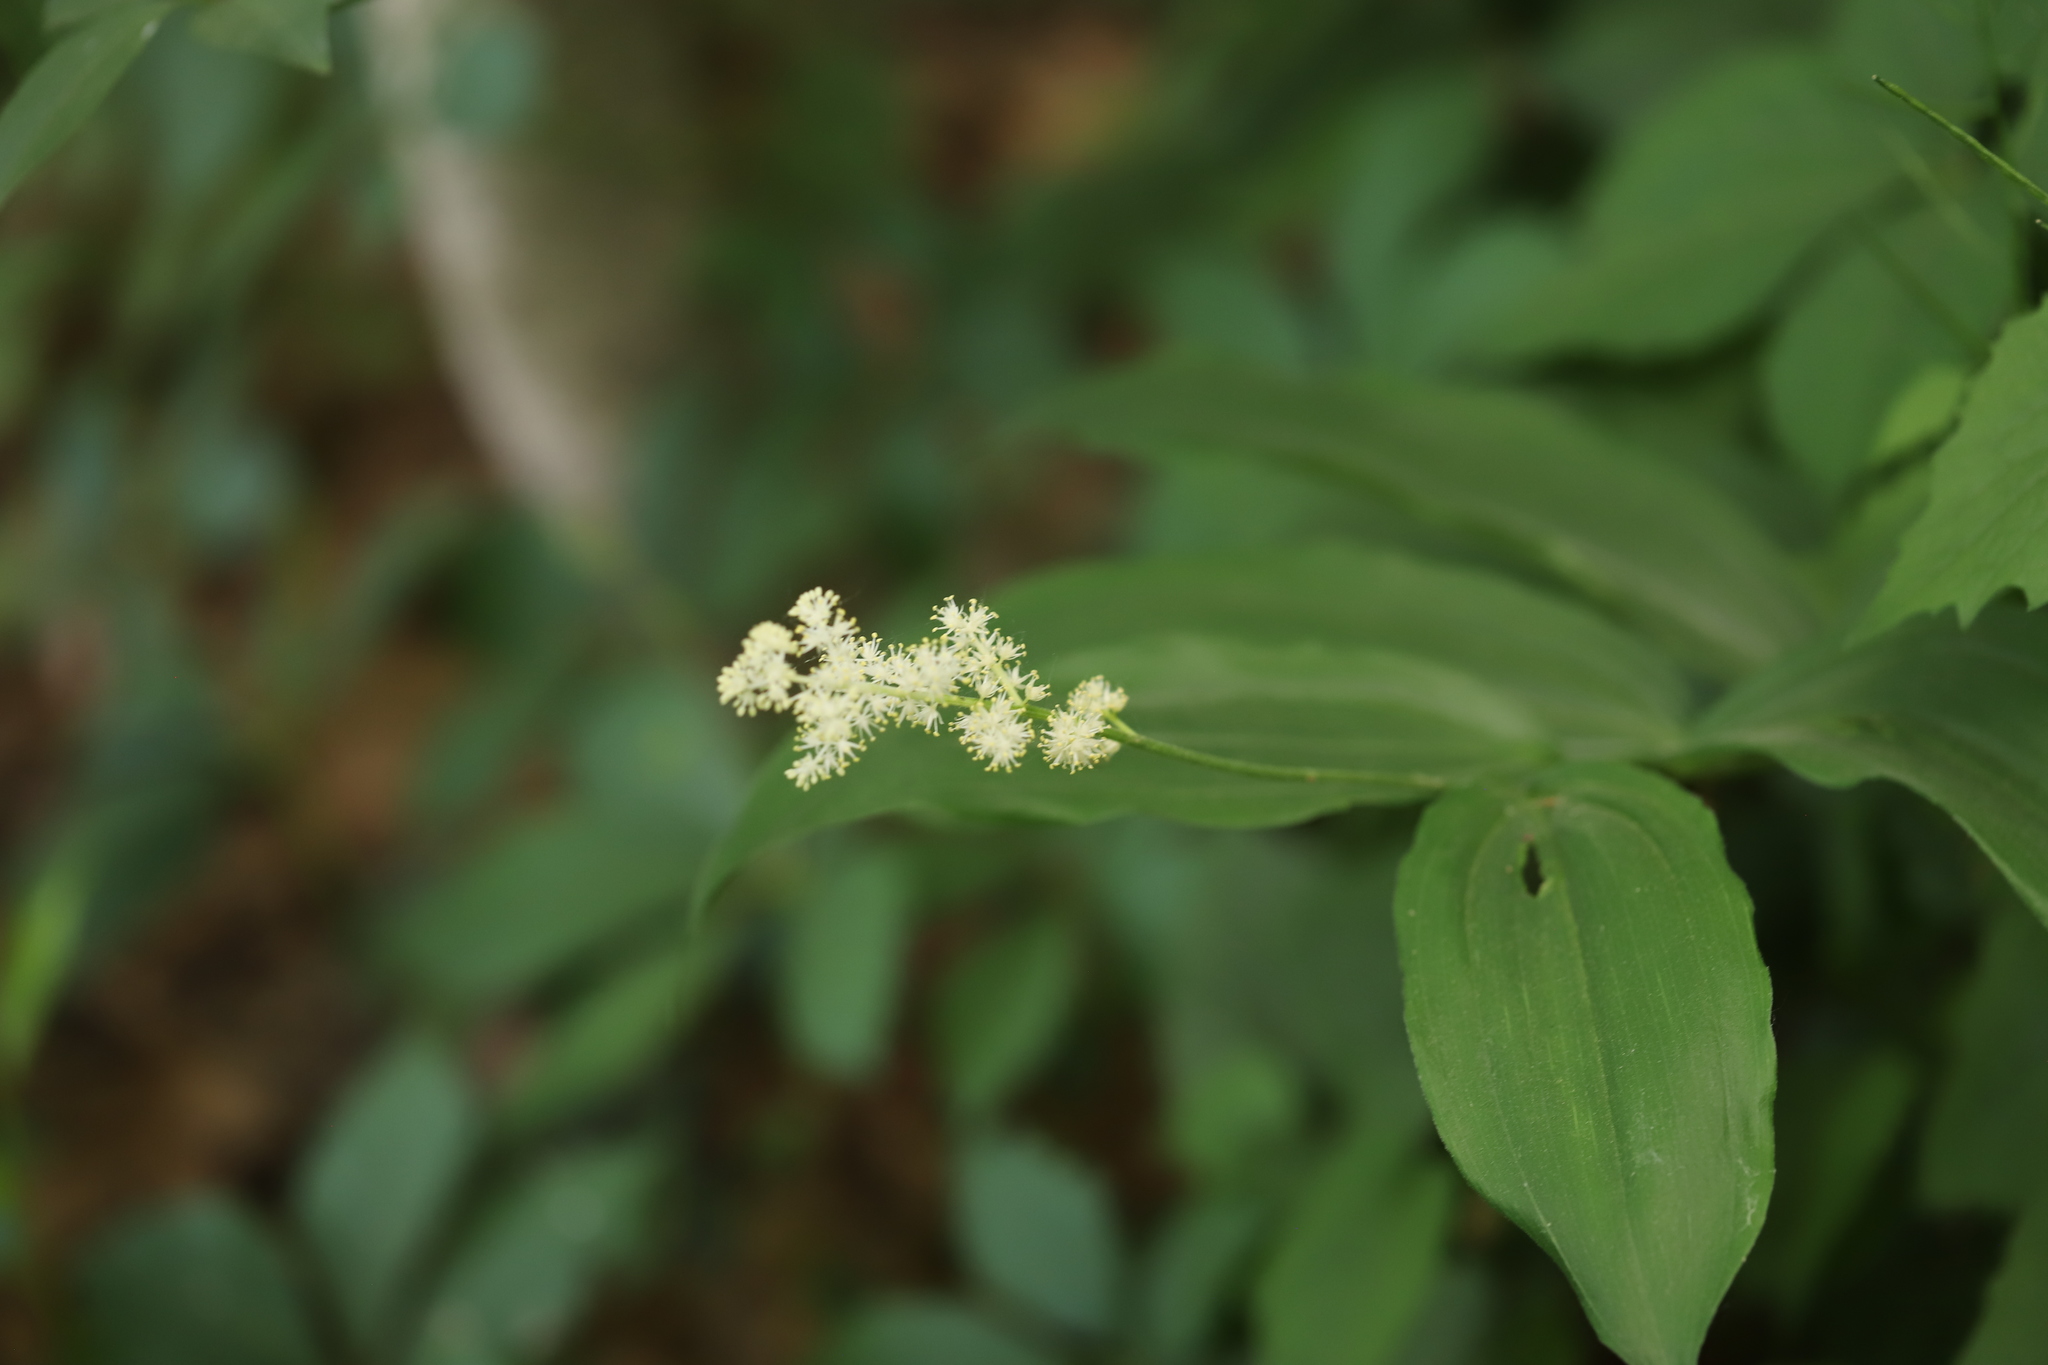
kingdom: Plantae
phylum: Tracheophyta
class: Liliopsida
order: Asparagales
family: Asparagaceae
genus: Maianthemum
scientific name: Maianthemum racemosum
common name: False spikenard
